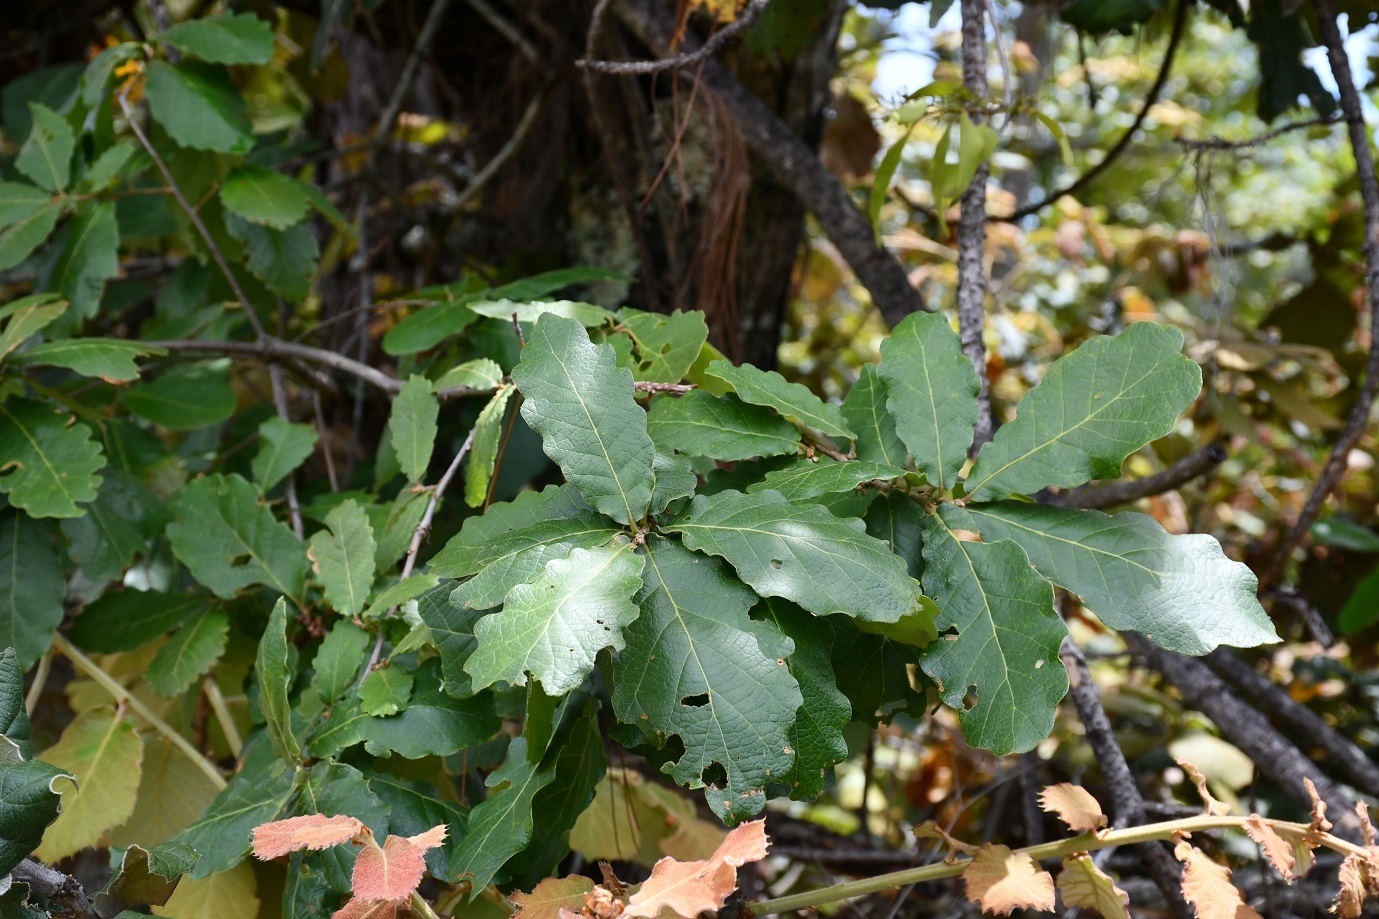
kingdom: Plantae
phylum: Tracheophyta
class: Magnoliopsida
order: Fagales
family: Fagaceae
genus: Quercus
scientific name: Quercus obtusata
